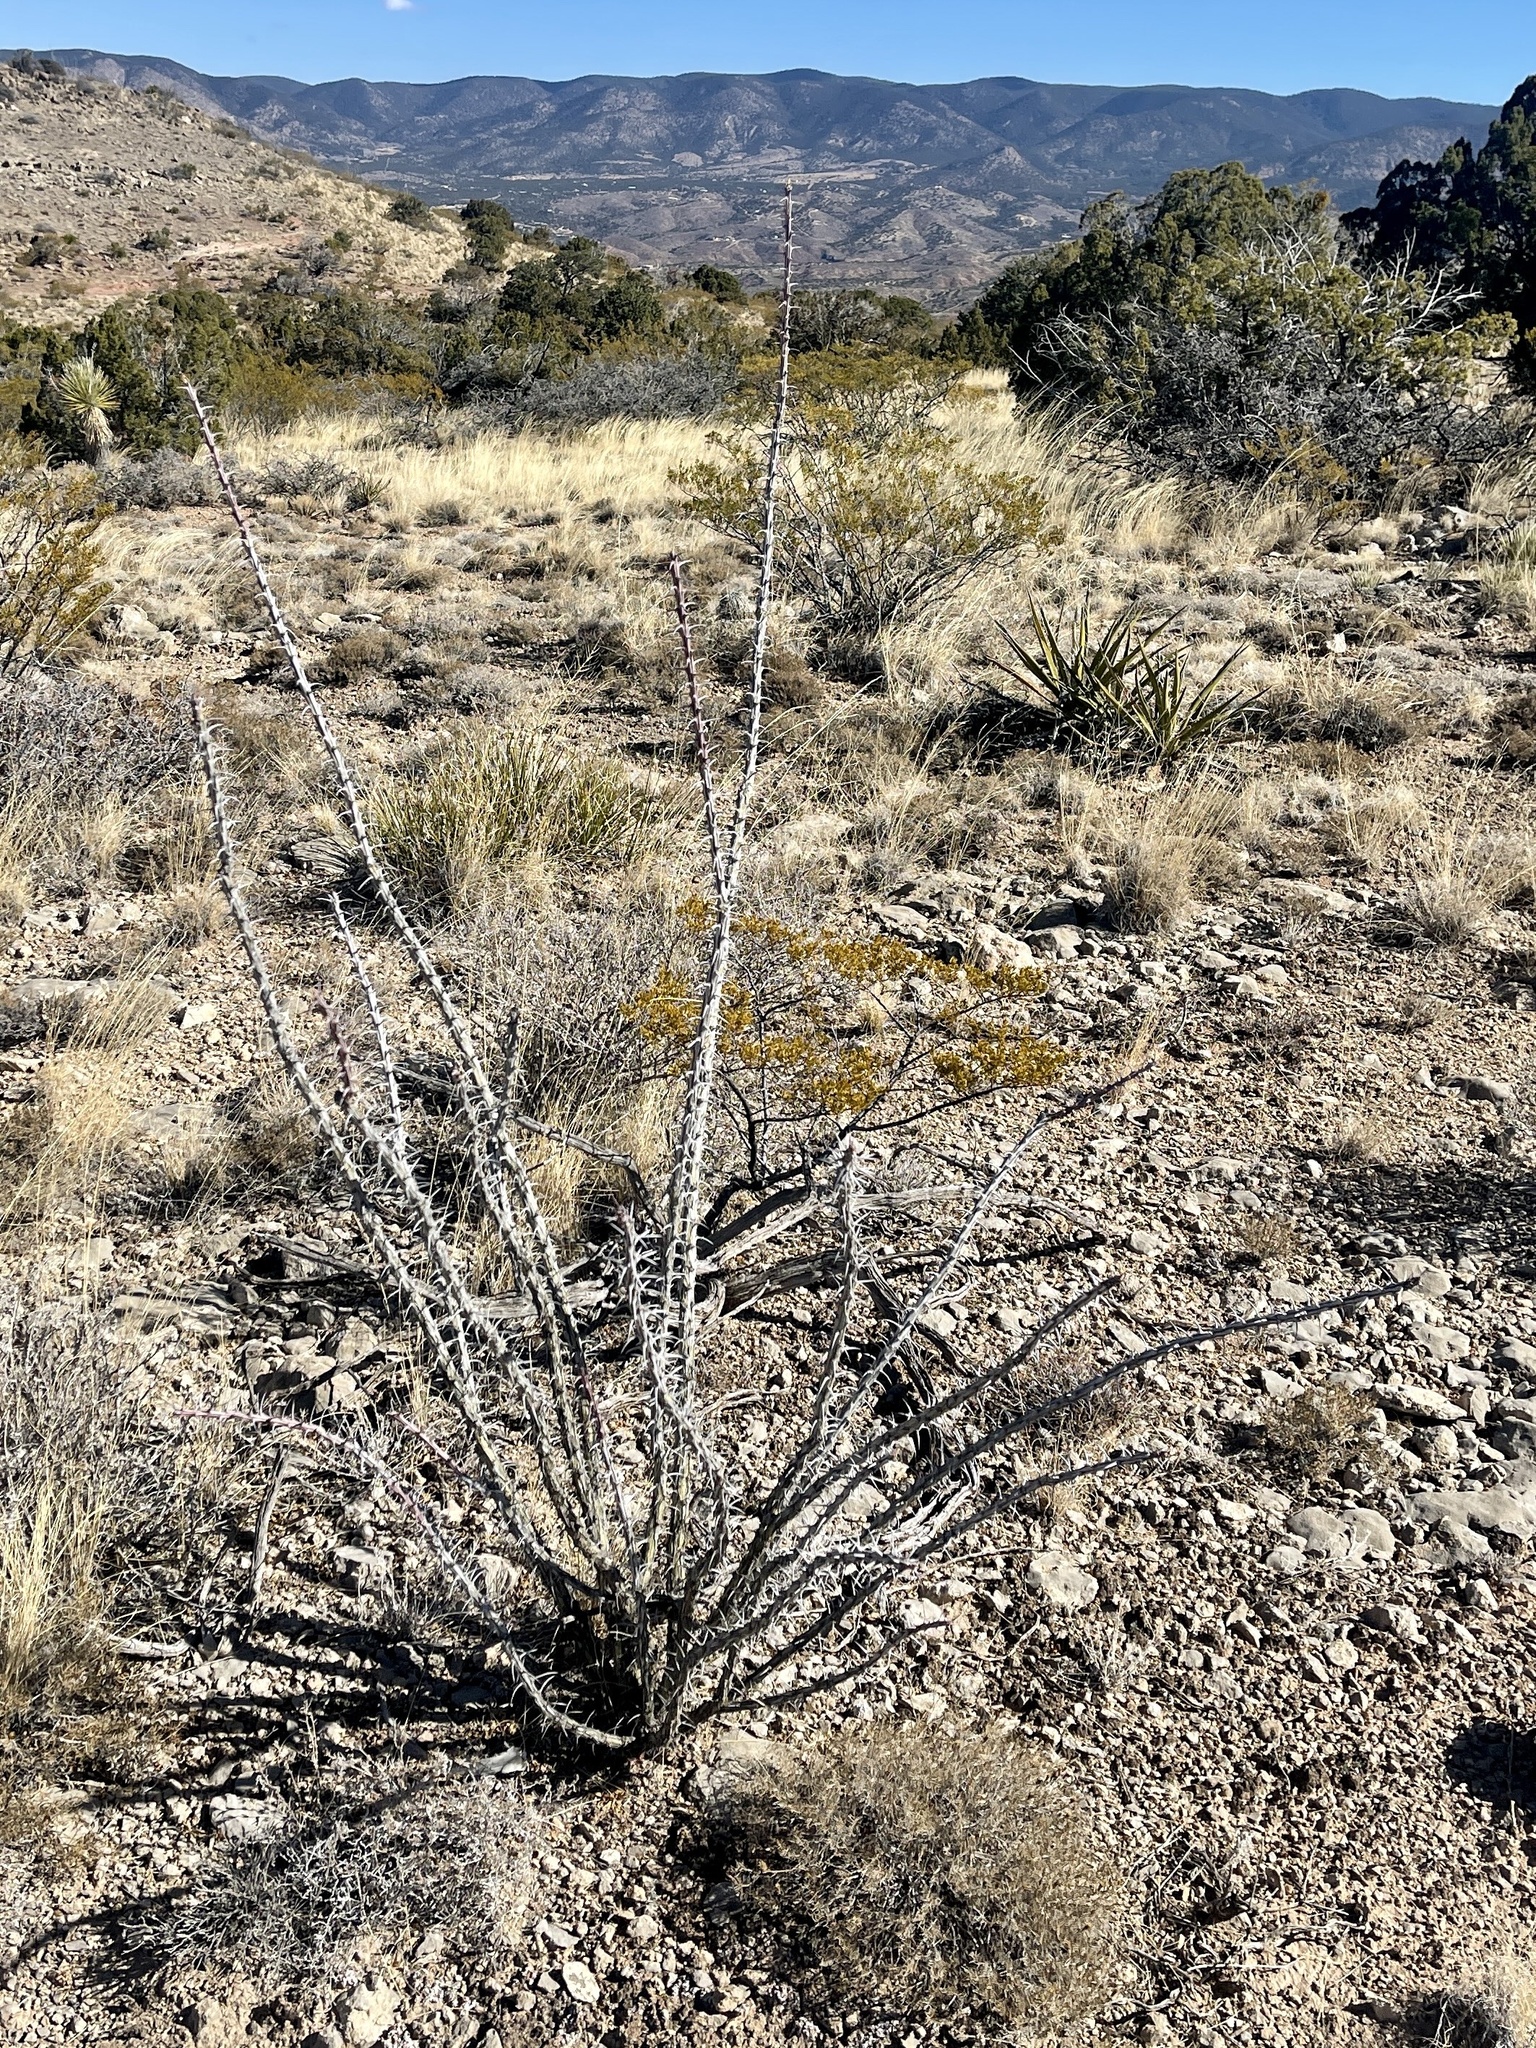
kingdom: Plantae
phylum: Tracheophyta
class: Magnoliopsida
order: Ericales
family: Fouquieriaceae
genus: Fouquieria
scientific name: Fouquieria splendens
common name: Vine-cactus
